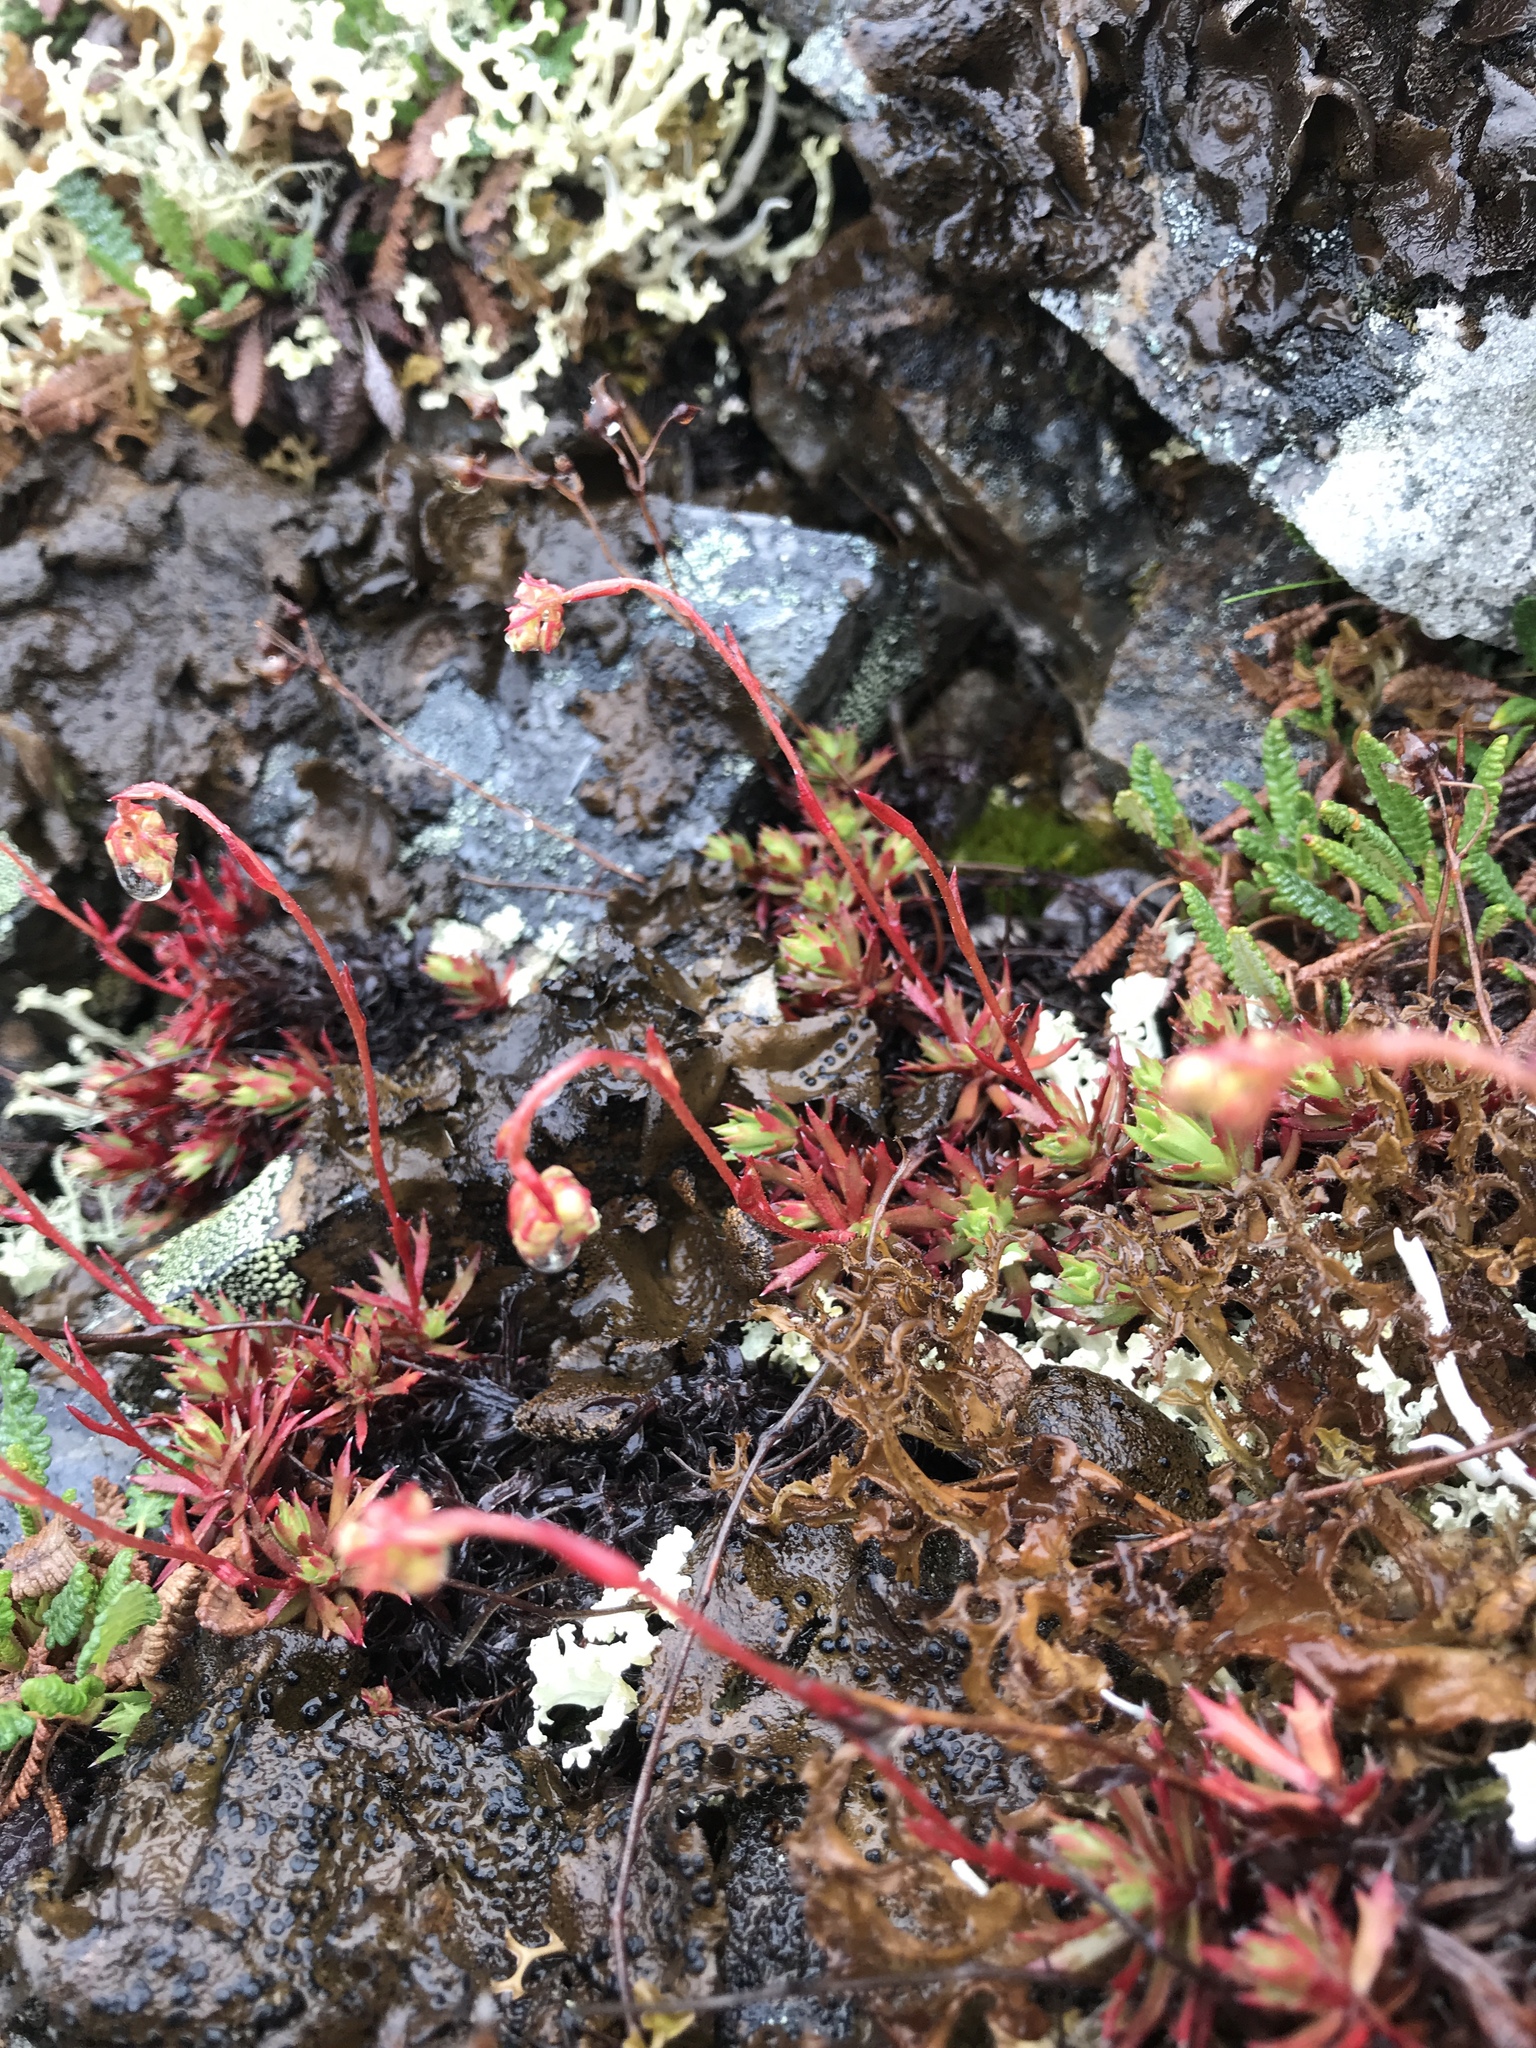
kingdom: Plantae
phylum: Tracheophyta
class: Magnoliopsida
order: Saxifragales
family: Saxifragaceae
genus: Saxifraga
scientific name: Saxifraga tricuspidata
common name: Prickly saxifrage
